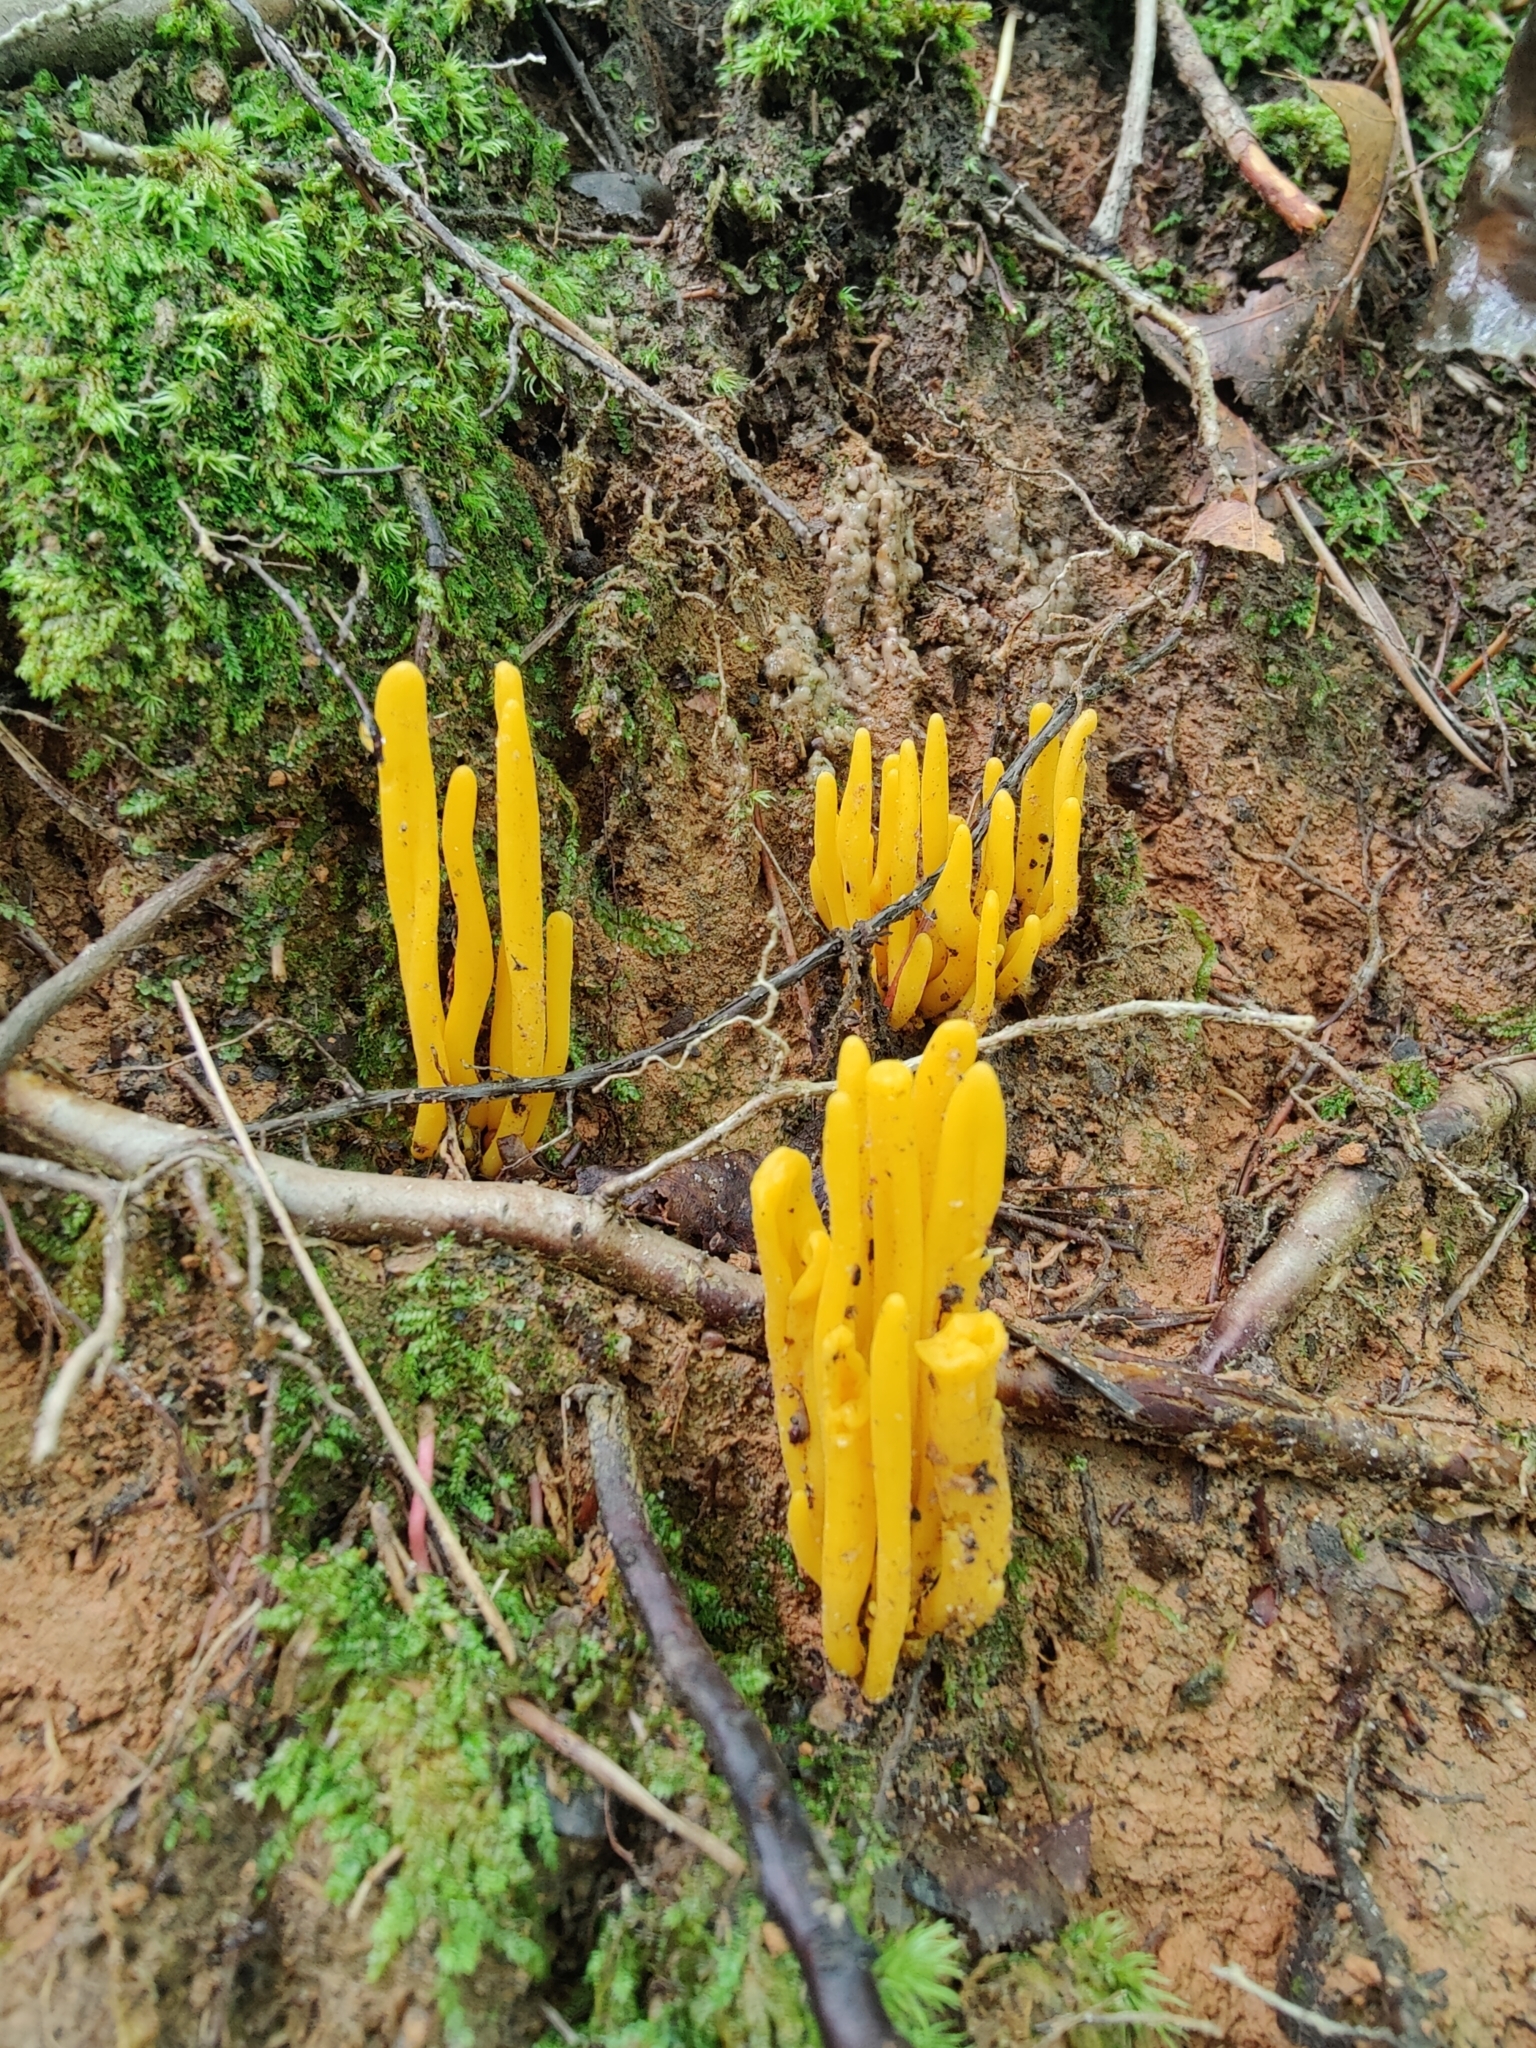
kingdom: Fungi
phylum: Basidiomycota
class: Agaricomycetes
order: Agaricales
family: Clavariaceae
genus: Clavulinopsis
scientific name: Clavulinopsis fusiformis
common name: Golden spindles
